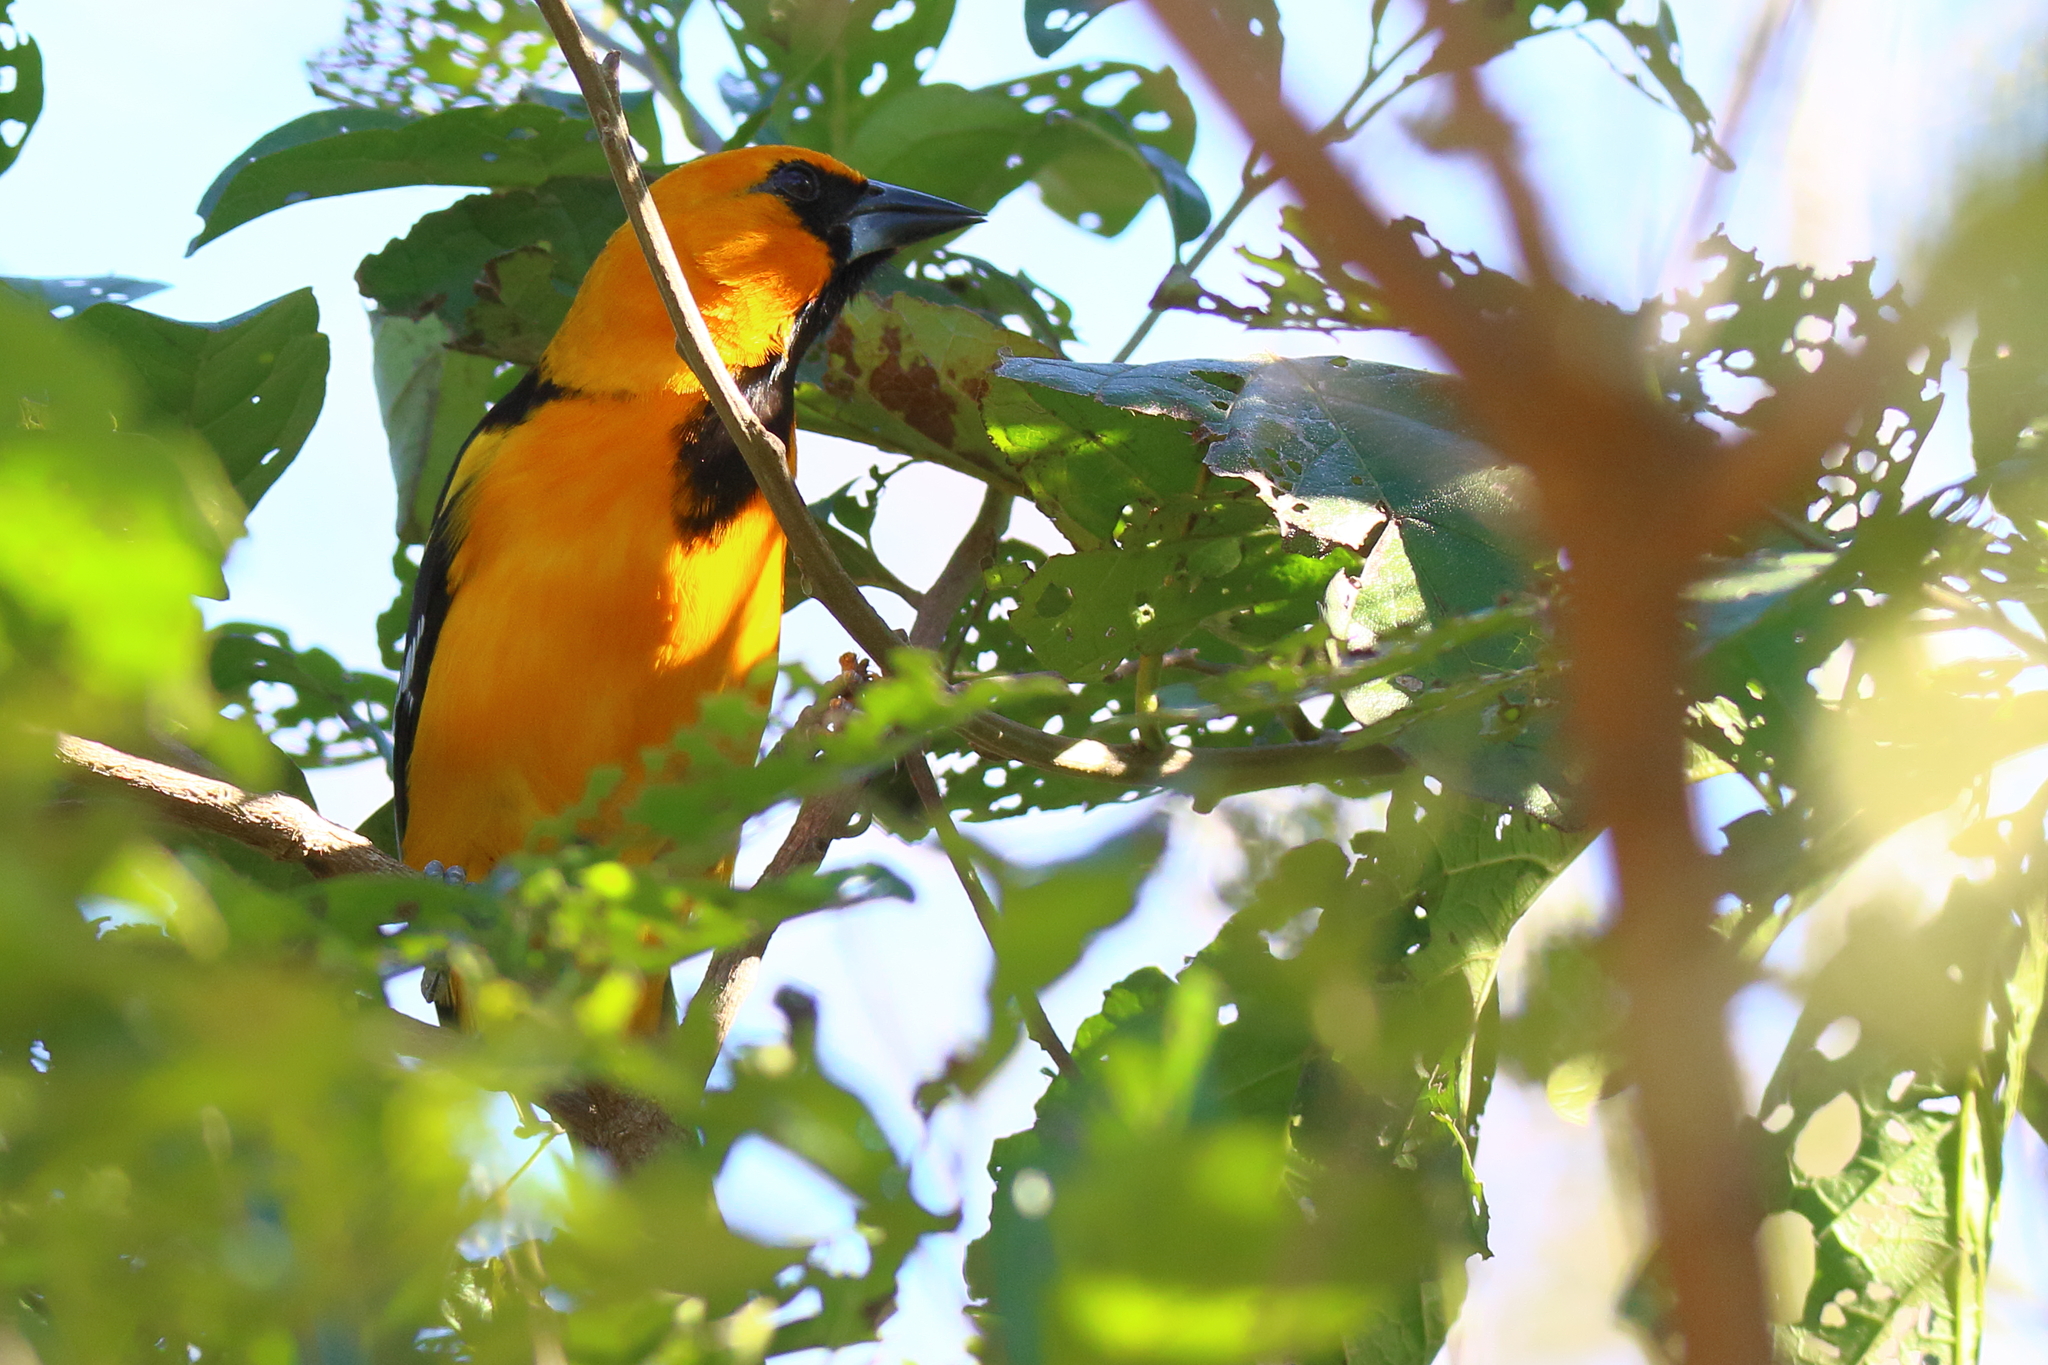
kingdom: Animalia
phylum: Chordata
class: Aves
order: Passeriformes
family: Icteridae
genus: Icterus
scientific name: Icterus gularis
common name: Altamira oriole
